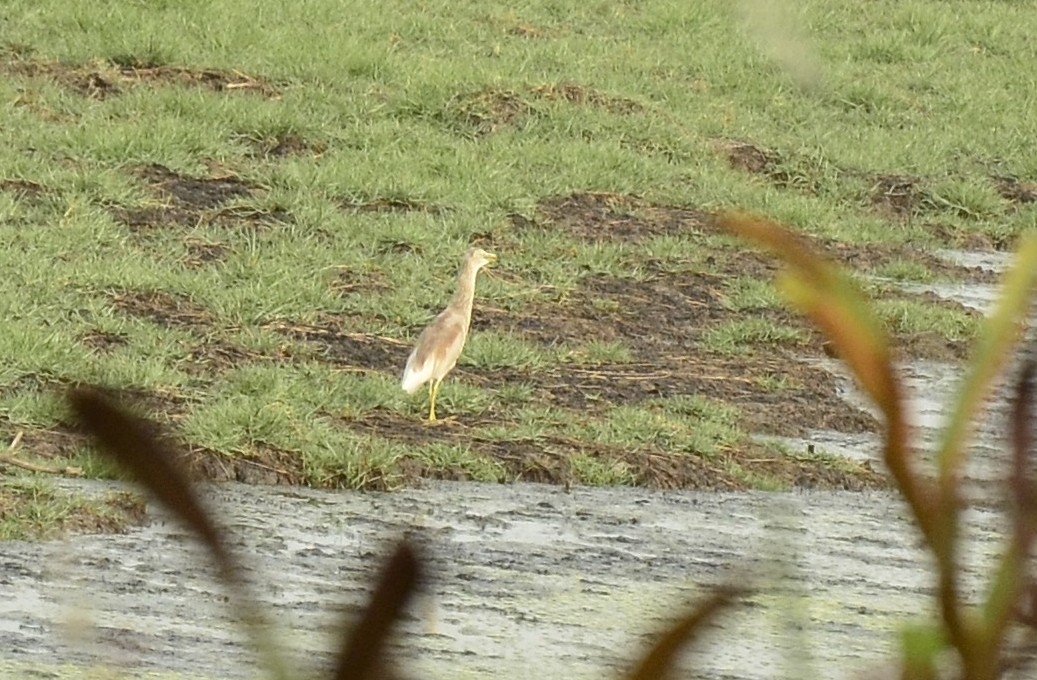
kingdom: Animalia
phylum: Chordata
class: Aves
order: Pelecaniformes
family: Ardeidae
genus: Ardeola
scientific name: Ardeola grayii
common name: Indian pond heron
